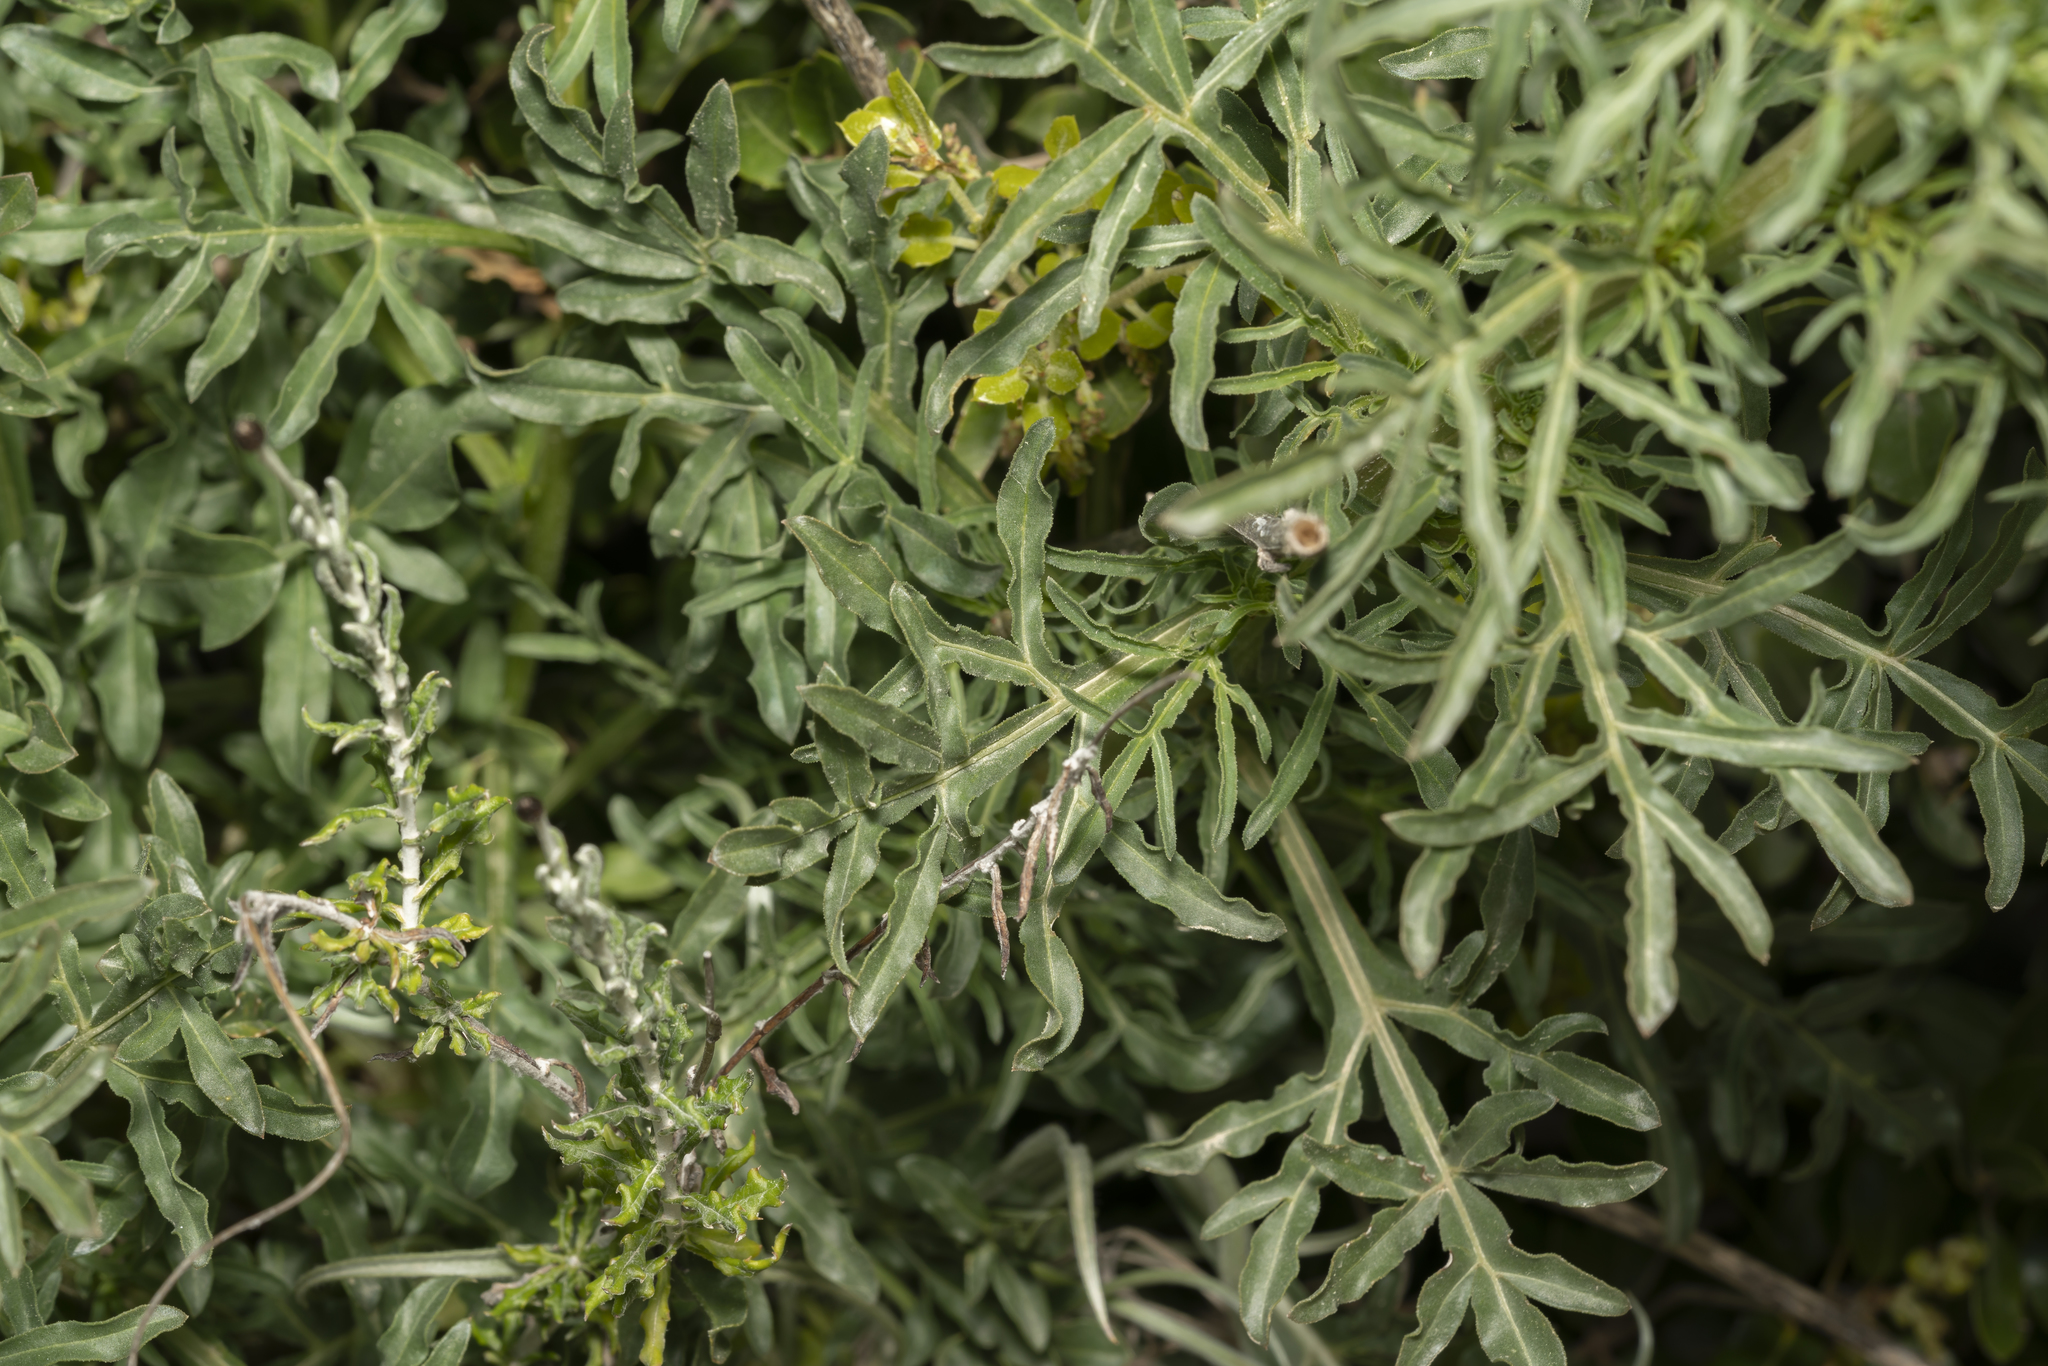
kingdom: Plantae
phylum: Tracheophyta
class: Magnoliopsida
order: Brassicales
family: Resedaceae
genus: Reseda
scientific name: Reseda lutea
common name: Wild mignonette
